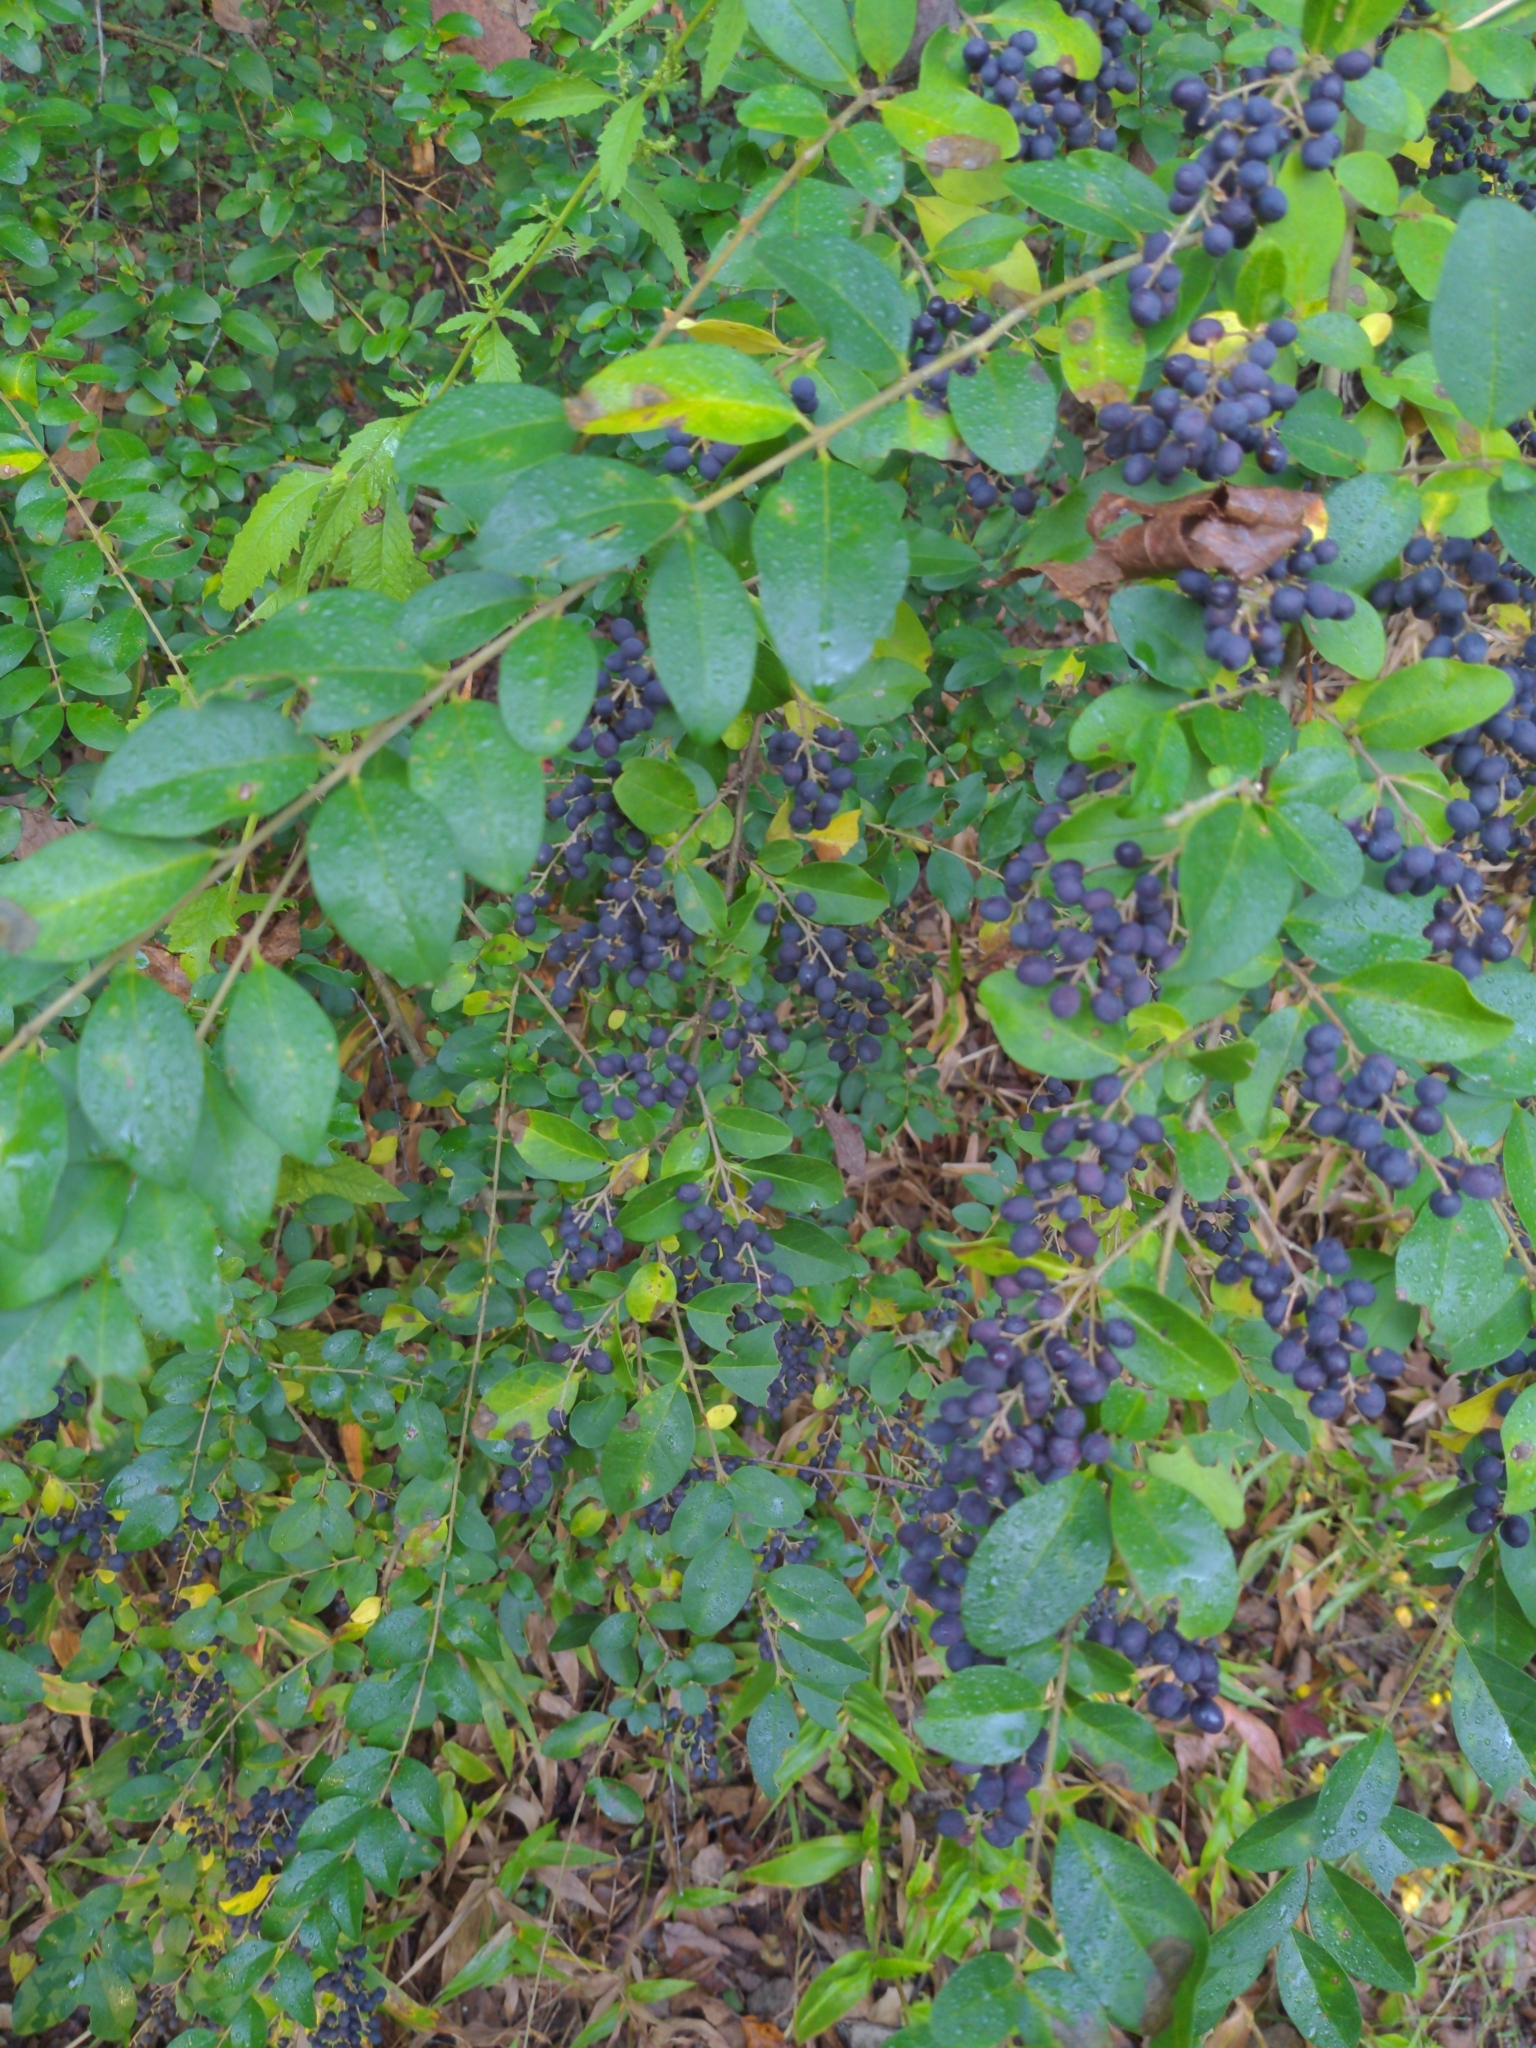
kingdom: Plantae
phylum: Tracheophyta
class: Magnoliopsida
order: Lamiales
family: Oleaceae
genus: Ligustrum
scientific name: Ligustrum sinense
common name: Chinese privet
